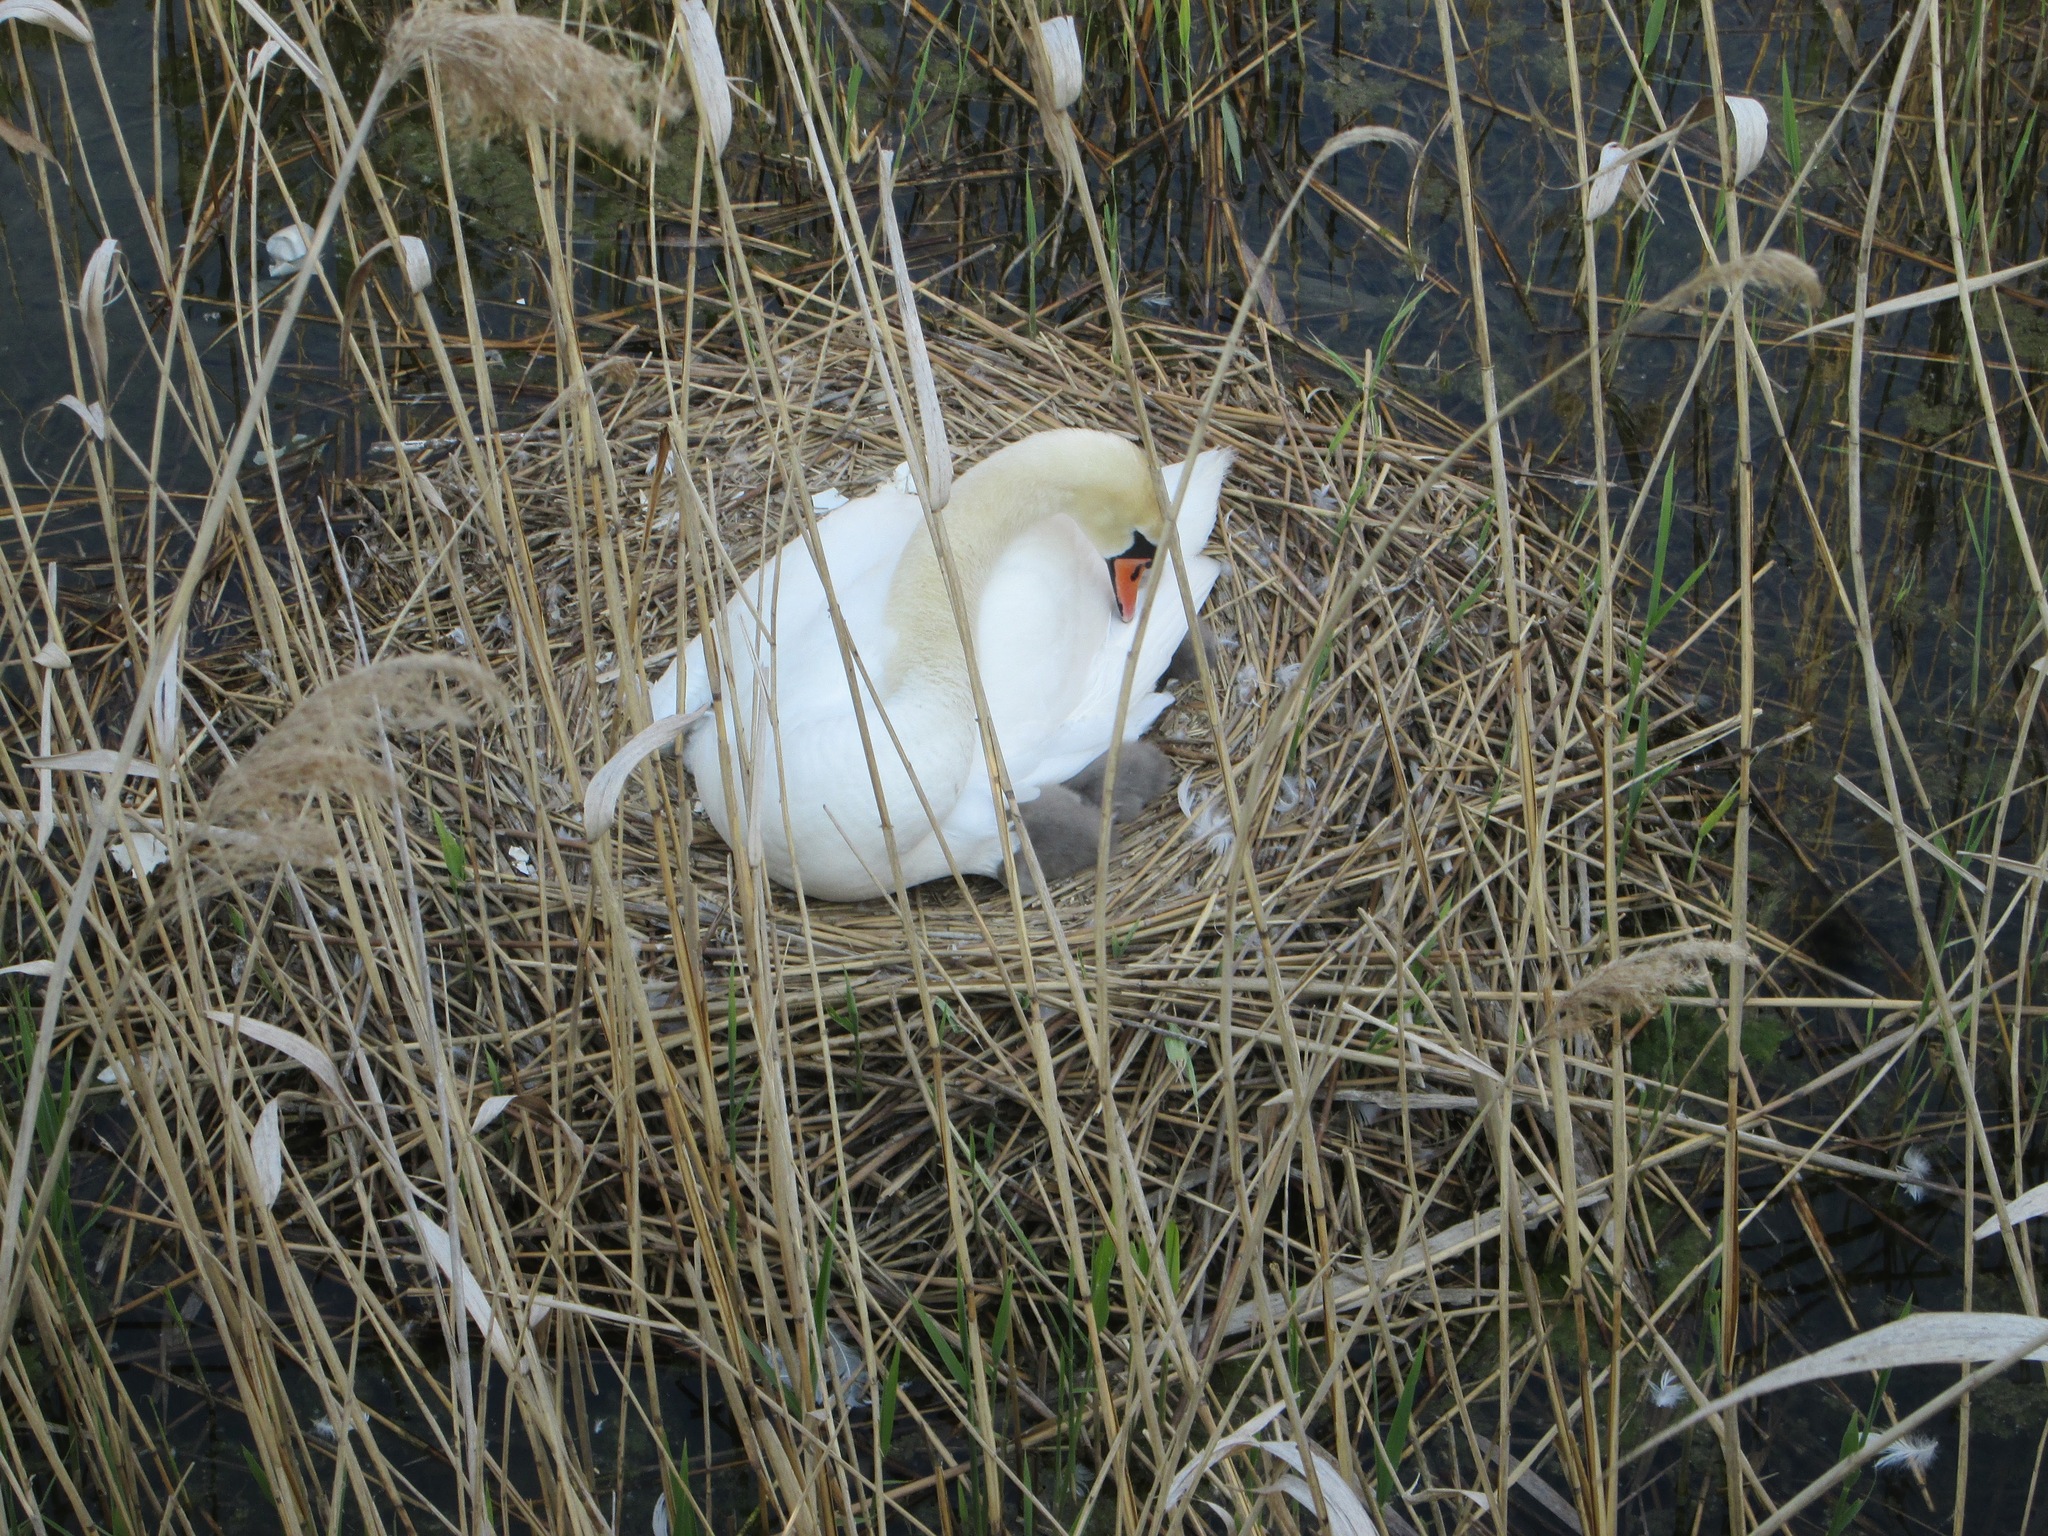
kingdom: Animalia
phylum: Chordata
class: Aves
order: Anseriformes
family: Anatidae
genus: Cygnus
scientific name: Cygnus olor
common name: Mute swan
